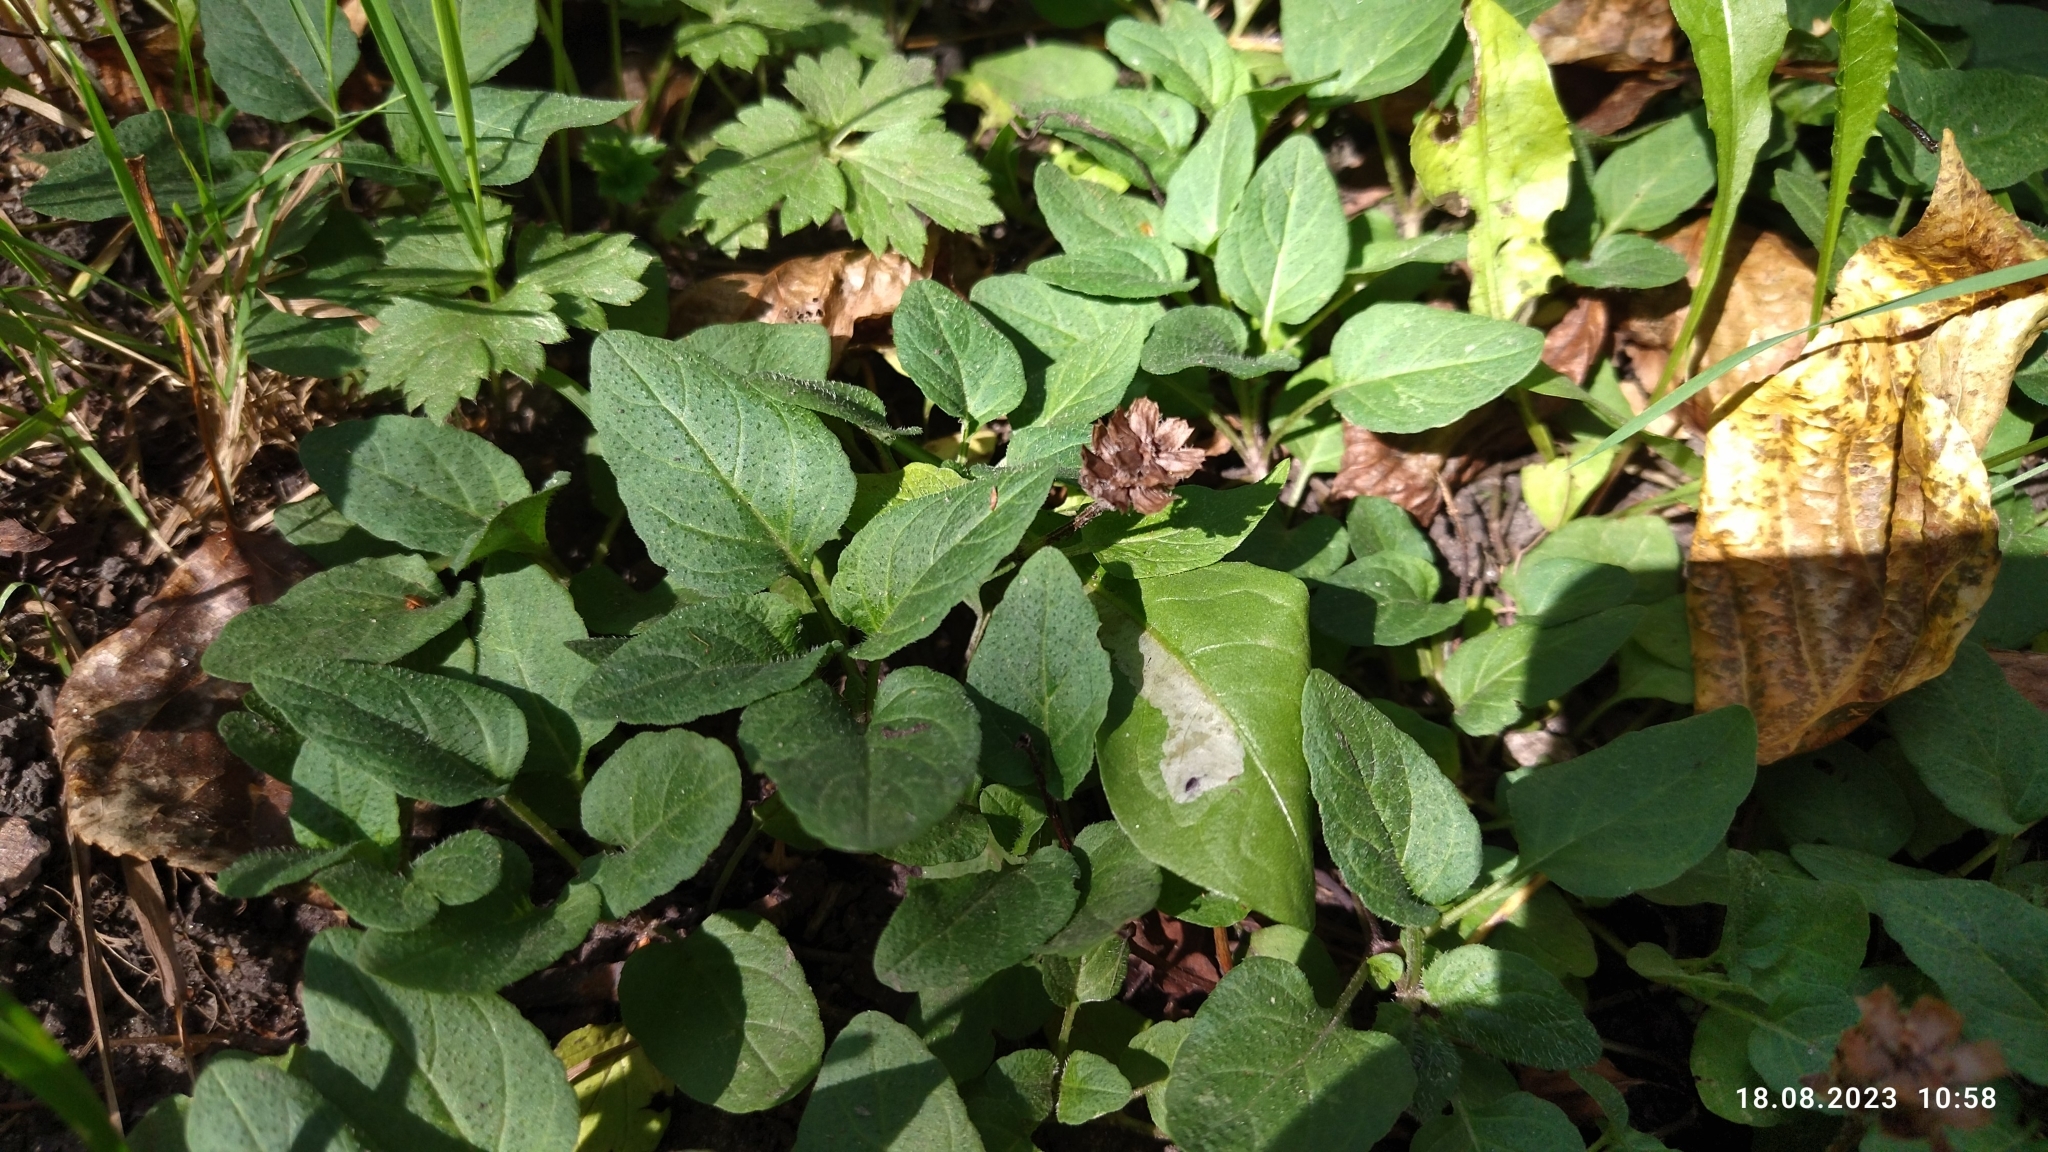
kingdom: Plantae
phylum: Tracheophyta
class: Magnoliopsida
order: Lamiales
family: Lamiaceae
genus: Prunella
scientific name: Prunella vulgaris
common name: Heal-all
